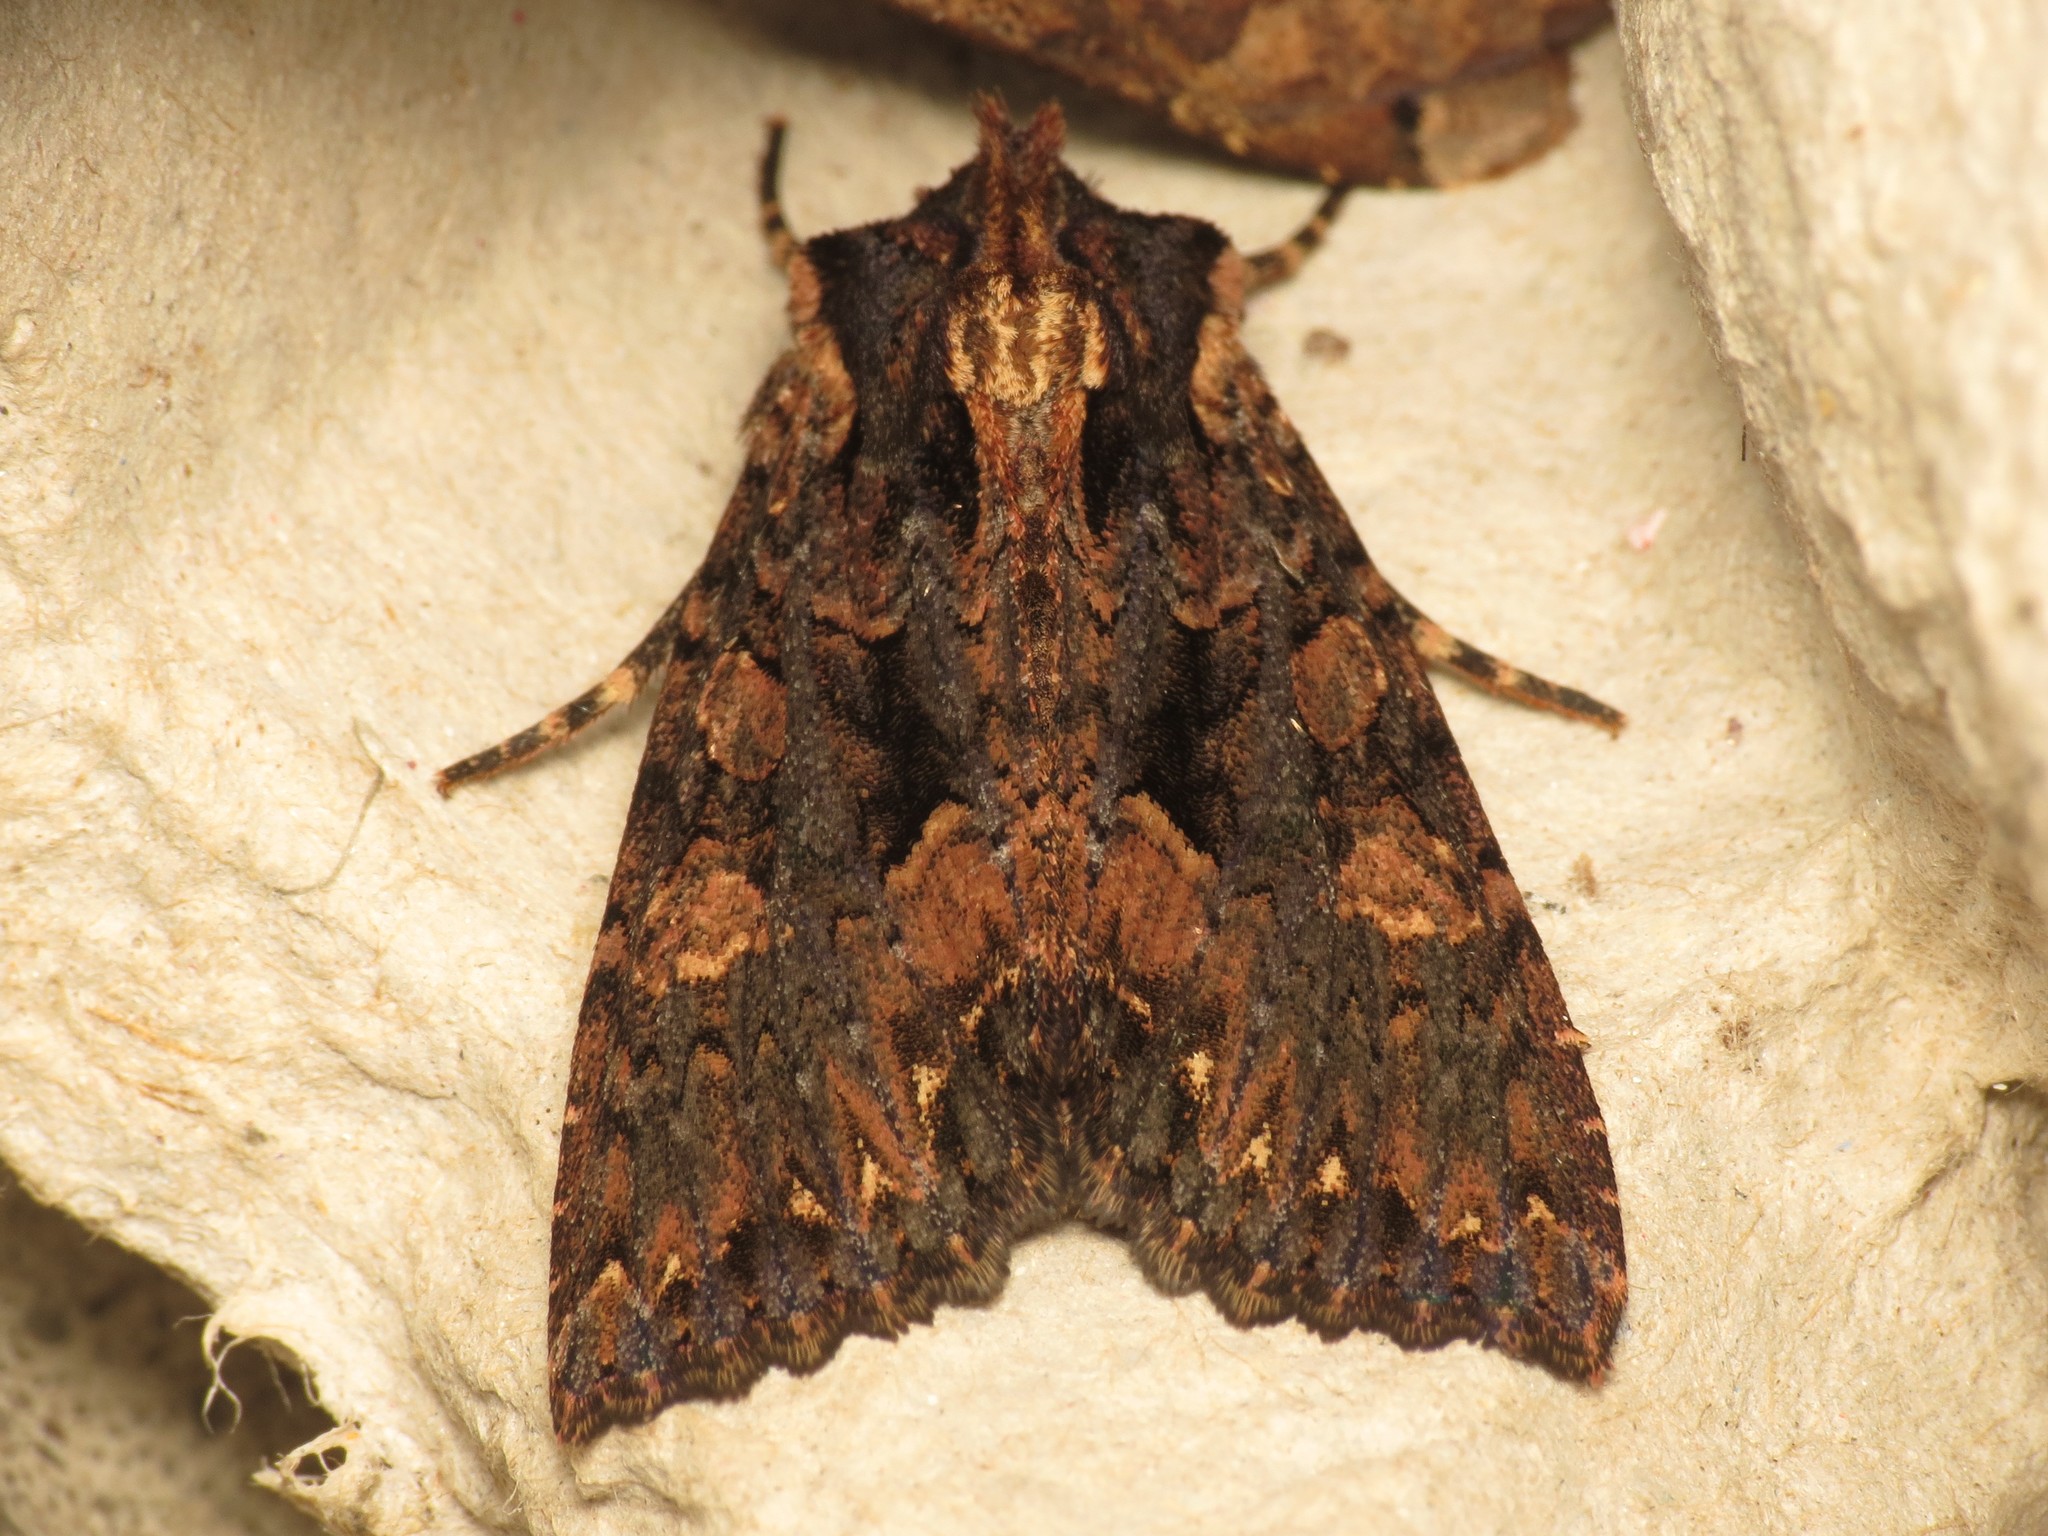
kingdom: Animalia
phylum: Arthropoda
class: Insecta
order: Lepidoptera
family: Noctuidae
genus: Mniotype
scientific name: Mniotype satura
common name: Beautiful arches
